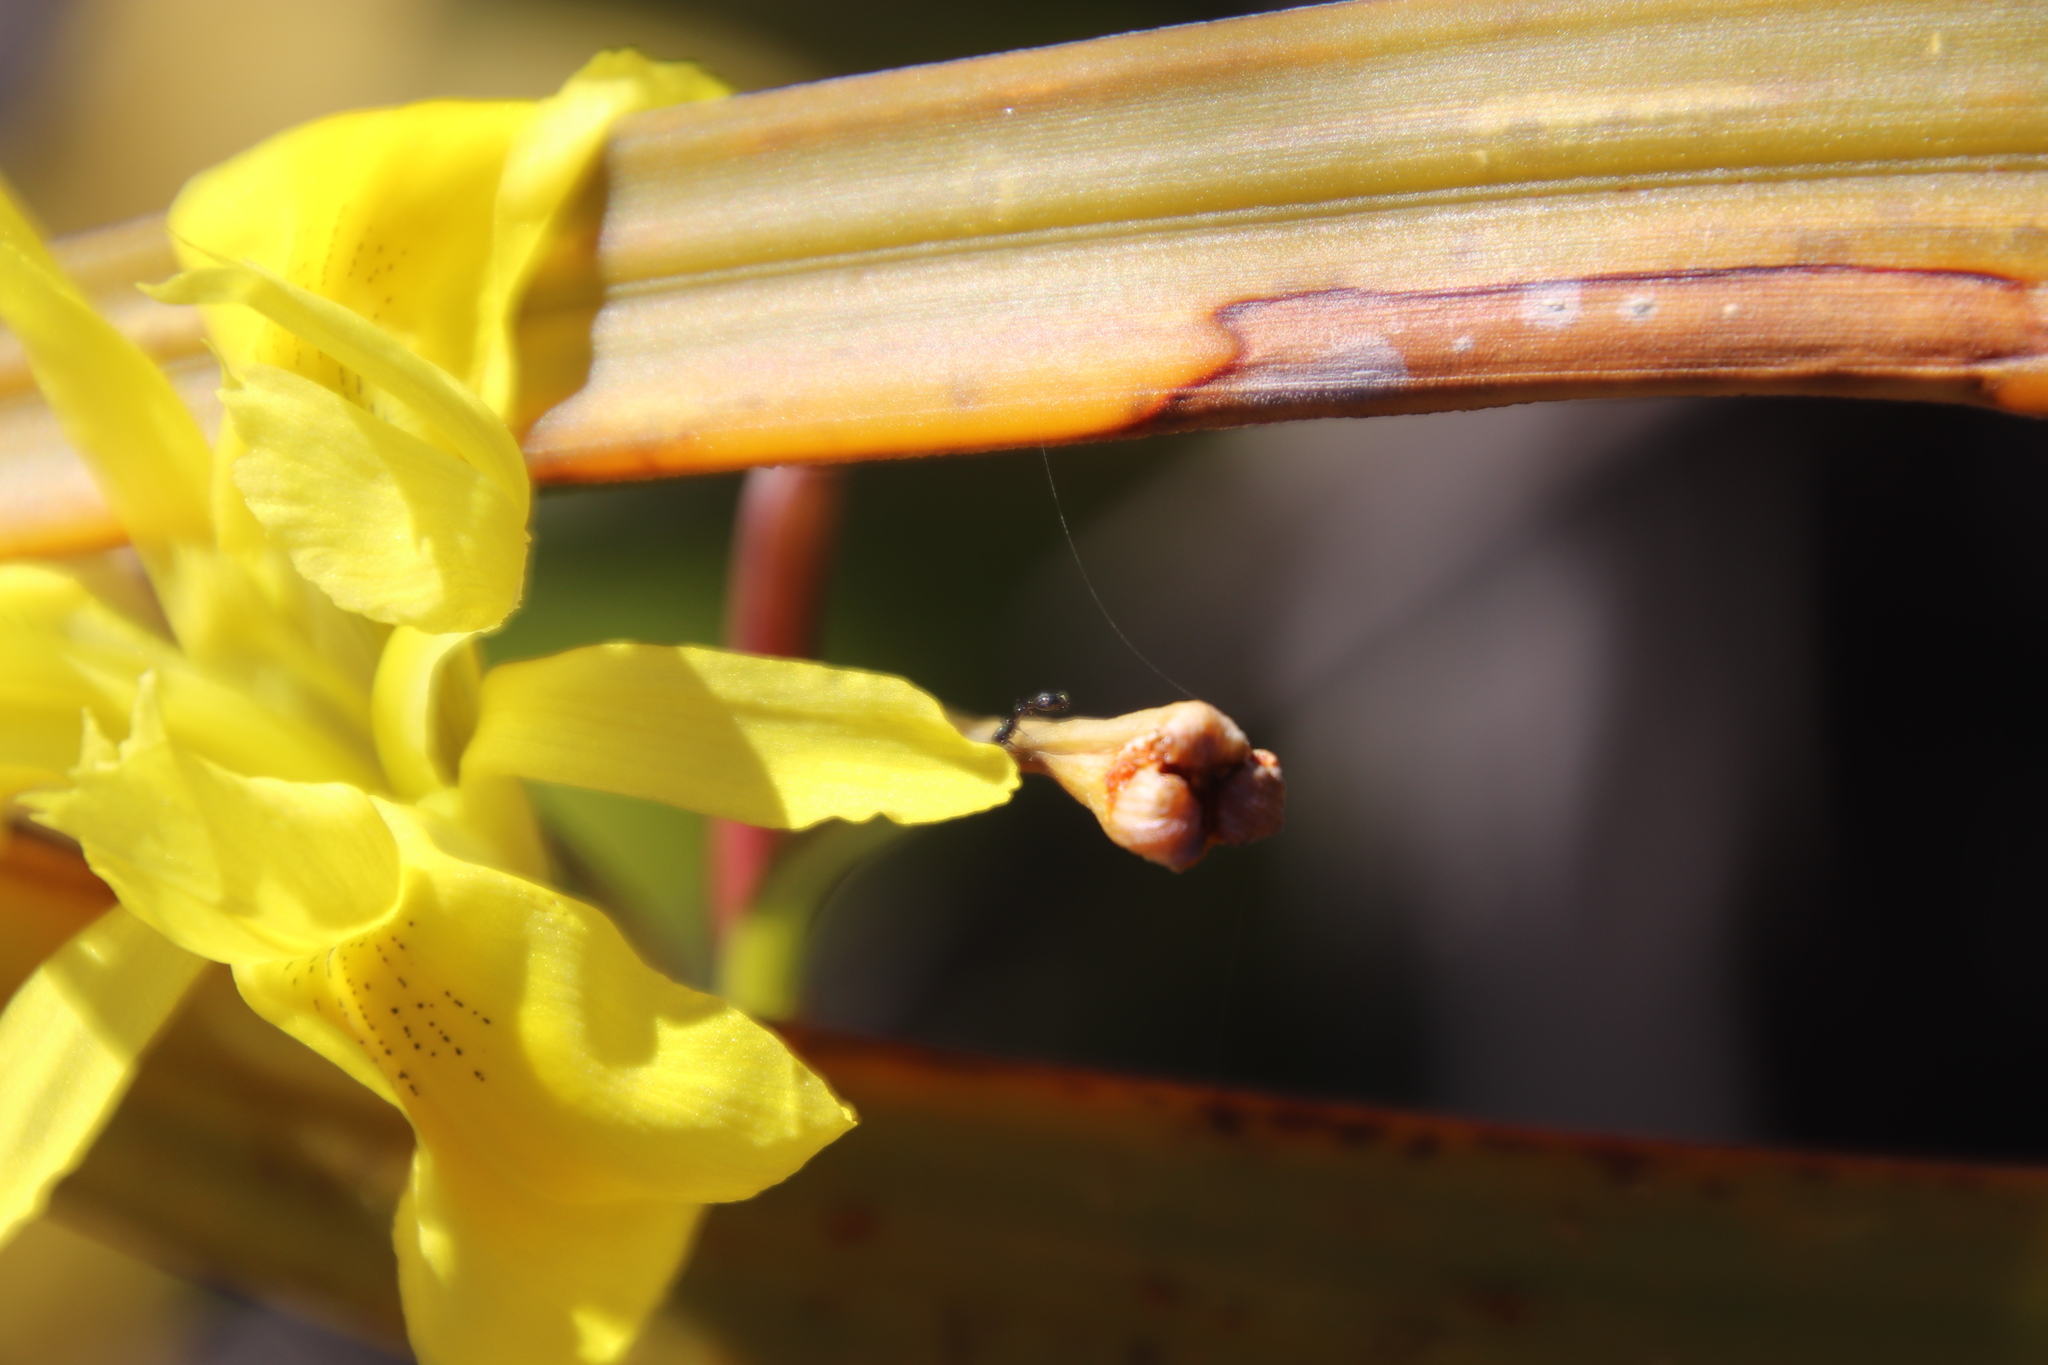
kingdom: Plantae
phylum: Tracheophyta
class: Liliopsida
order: Asparagales
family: Iridaceae
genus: Moraea
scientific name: Moraea neglecta
